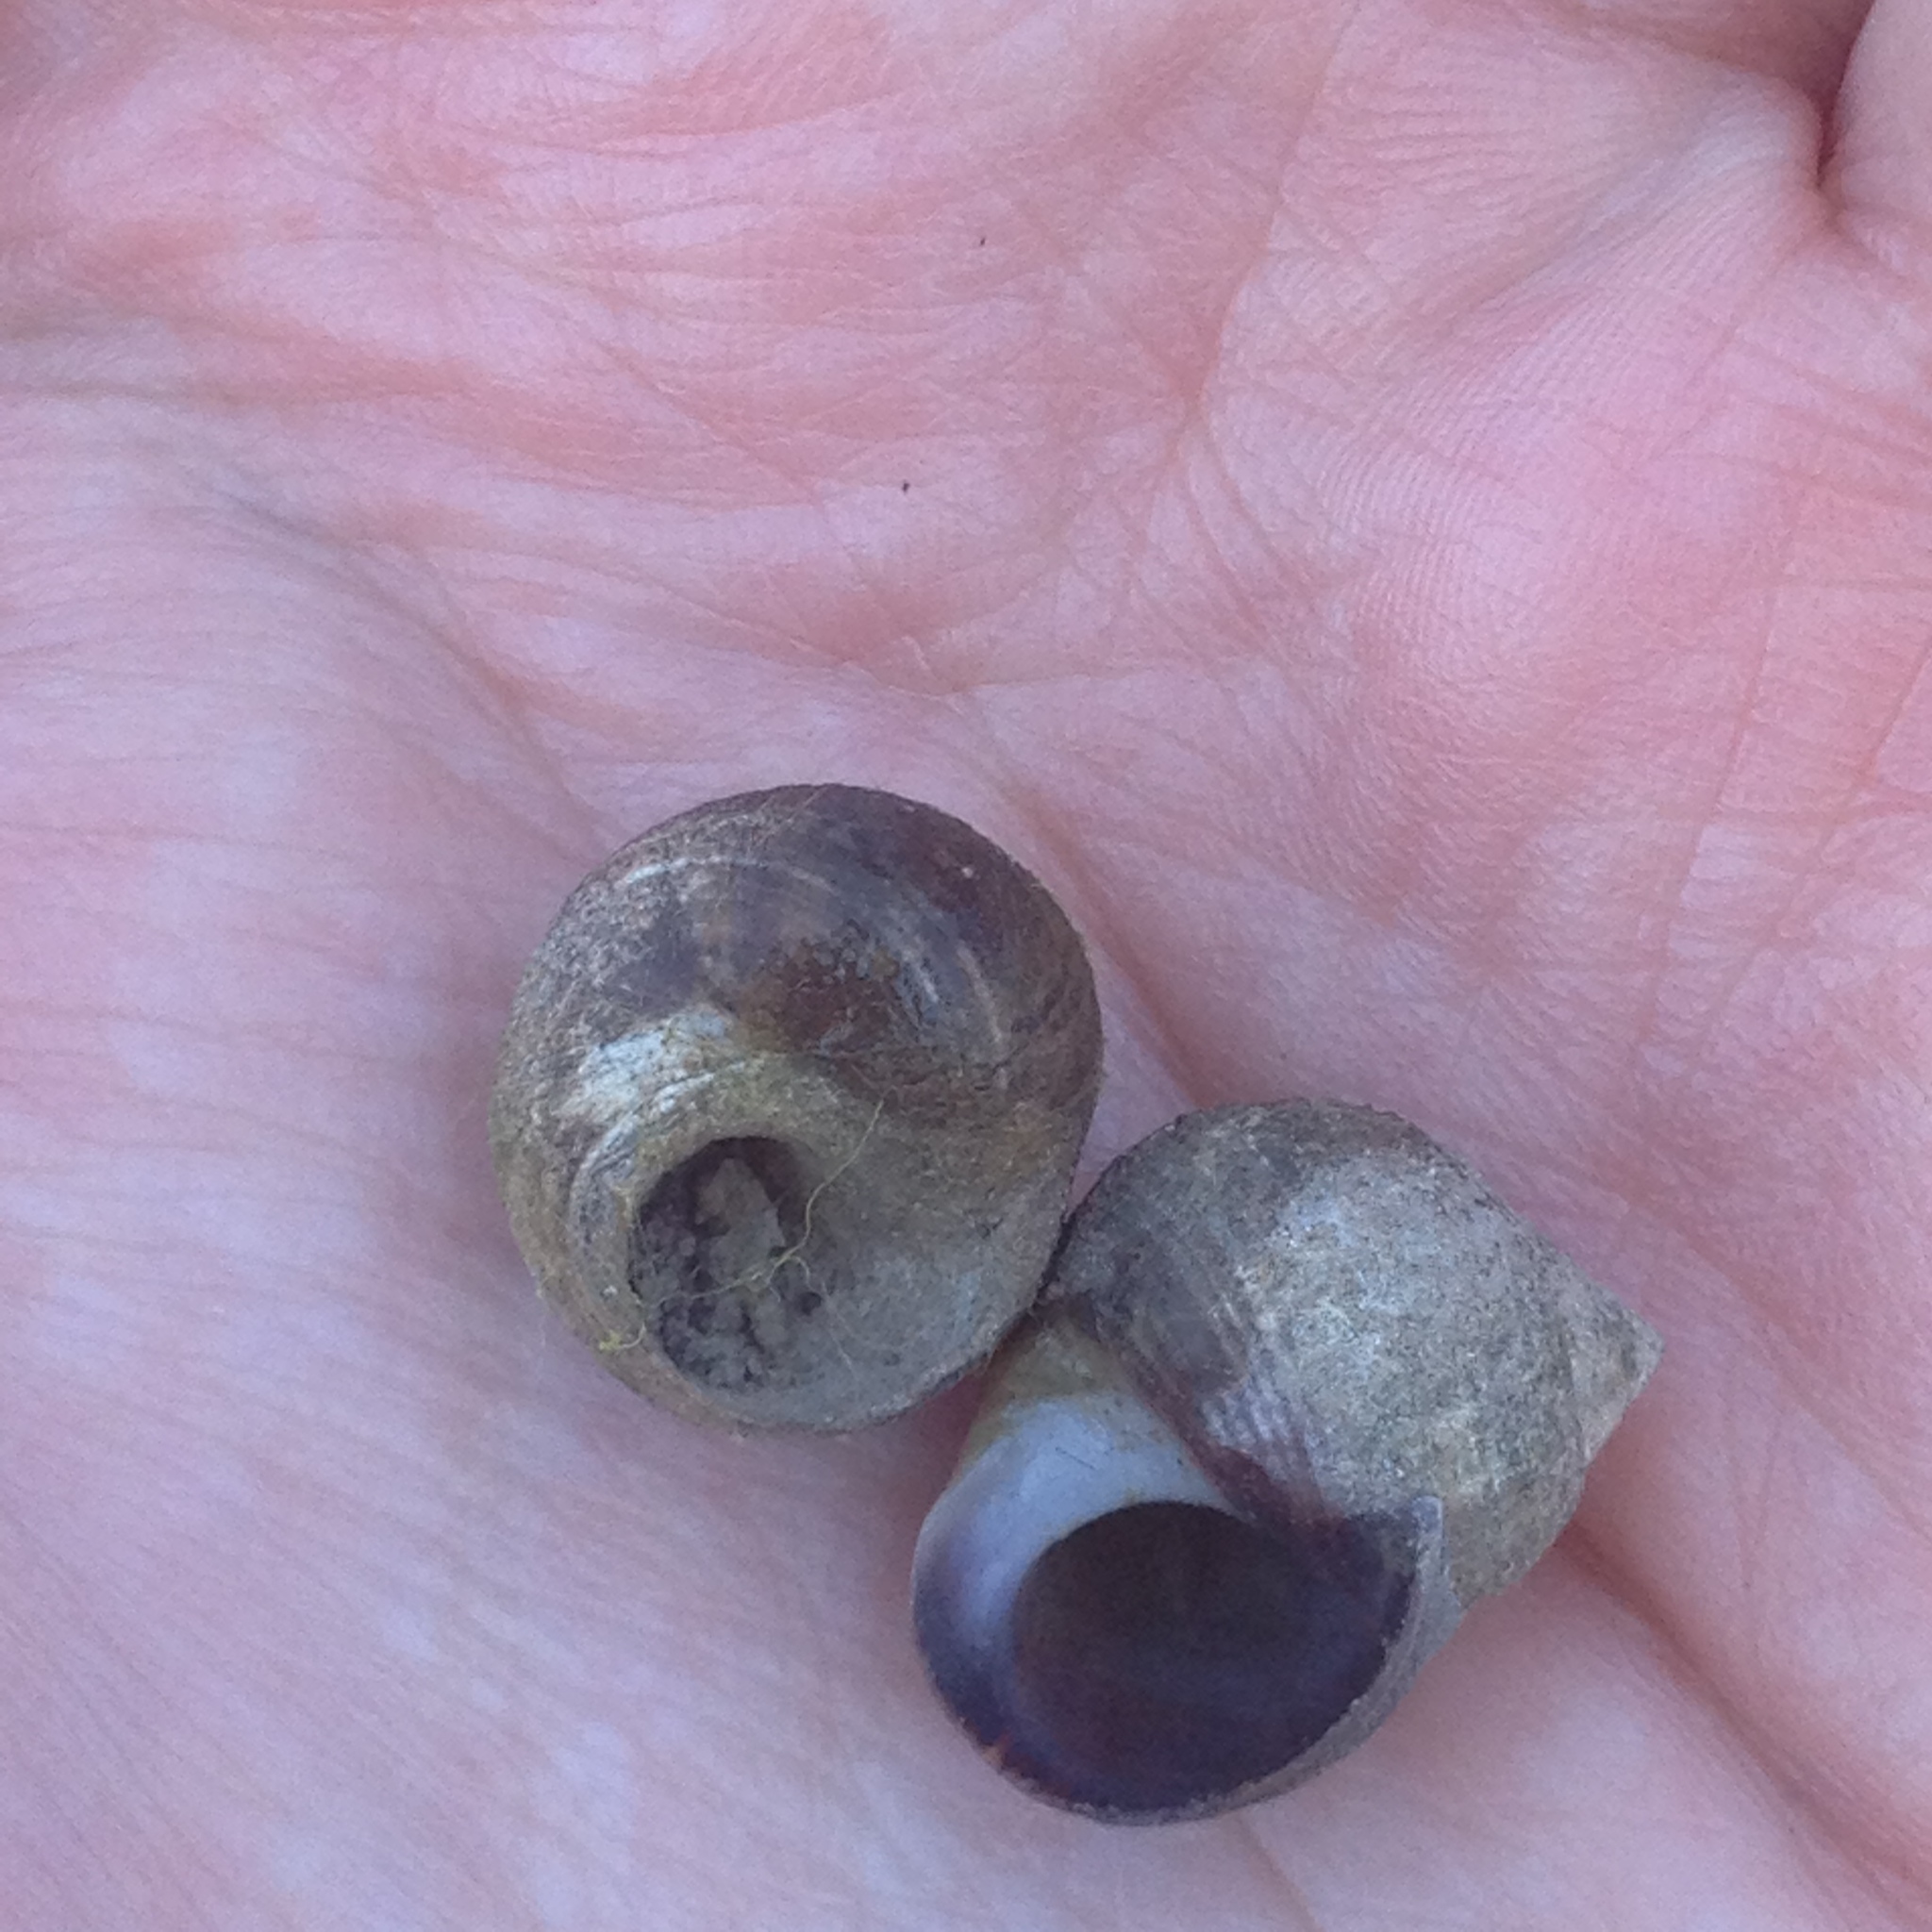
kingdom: Animalia
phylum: Mollusca
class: Gastropoda
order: Littorinimorpha
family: Littorinidae
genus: Littorina
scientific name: Littorina littorea
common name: Common periwinkle
